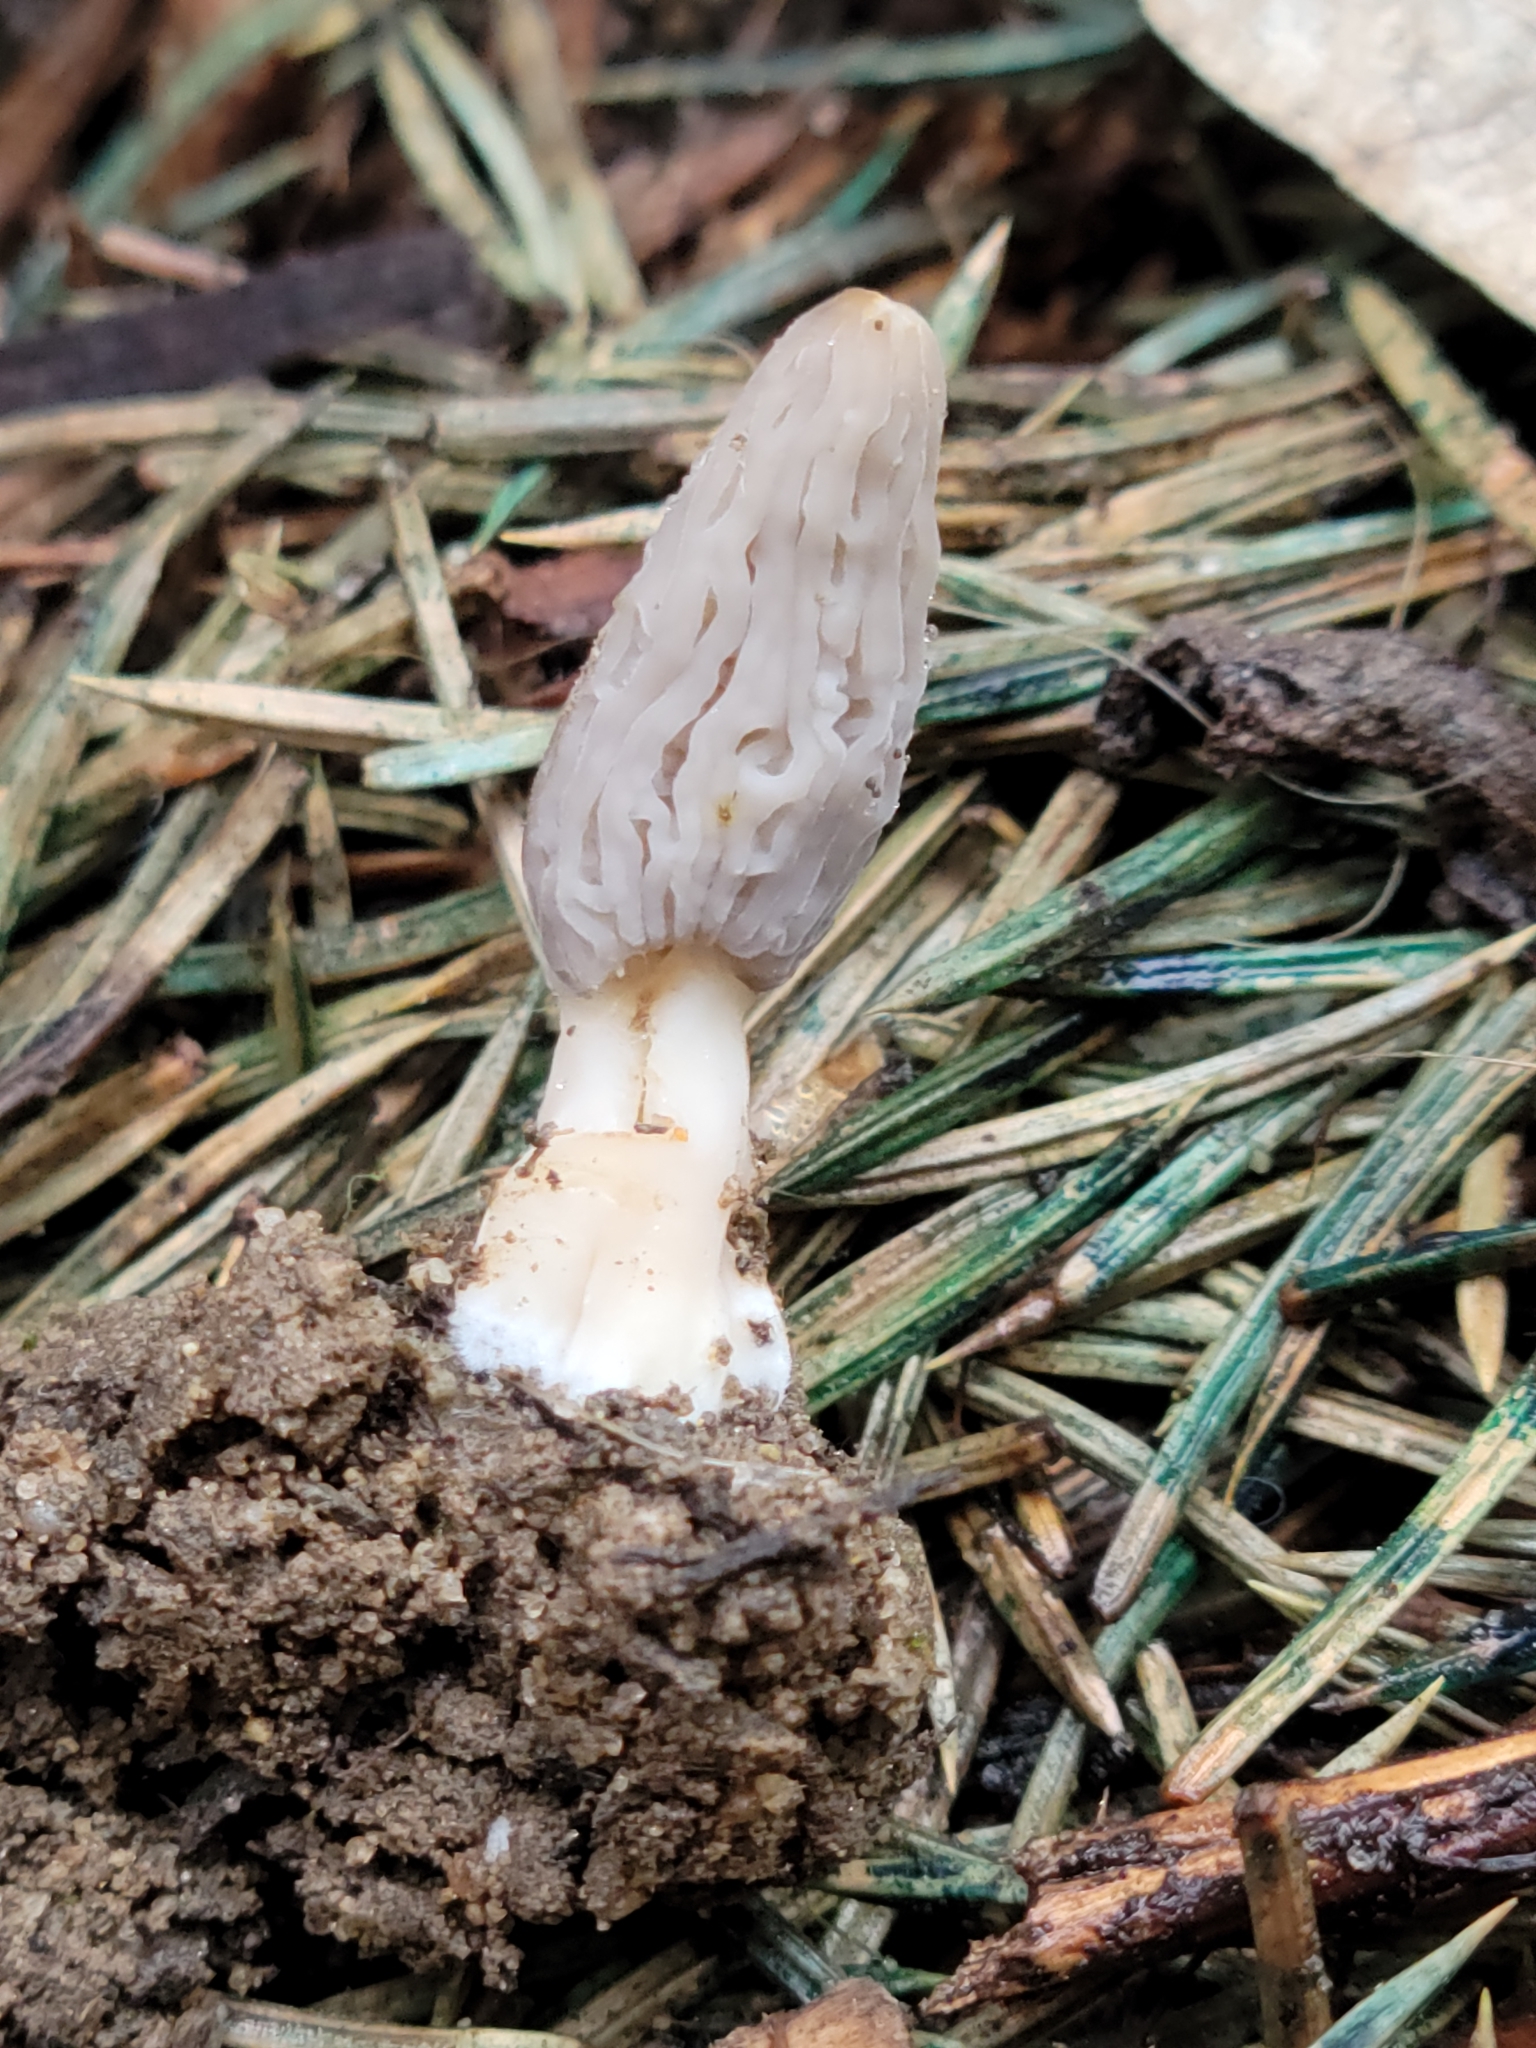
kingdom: Fungi
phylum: Ascomycota
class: Pezizomycetes
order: Pezizales
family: Morchellaceae
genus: Morchella
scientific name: Morchella rufobrunnea
